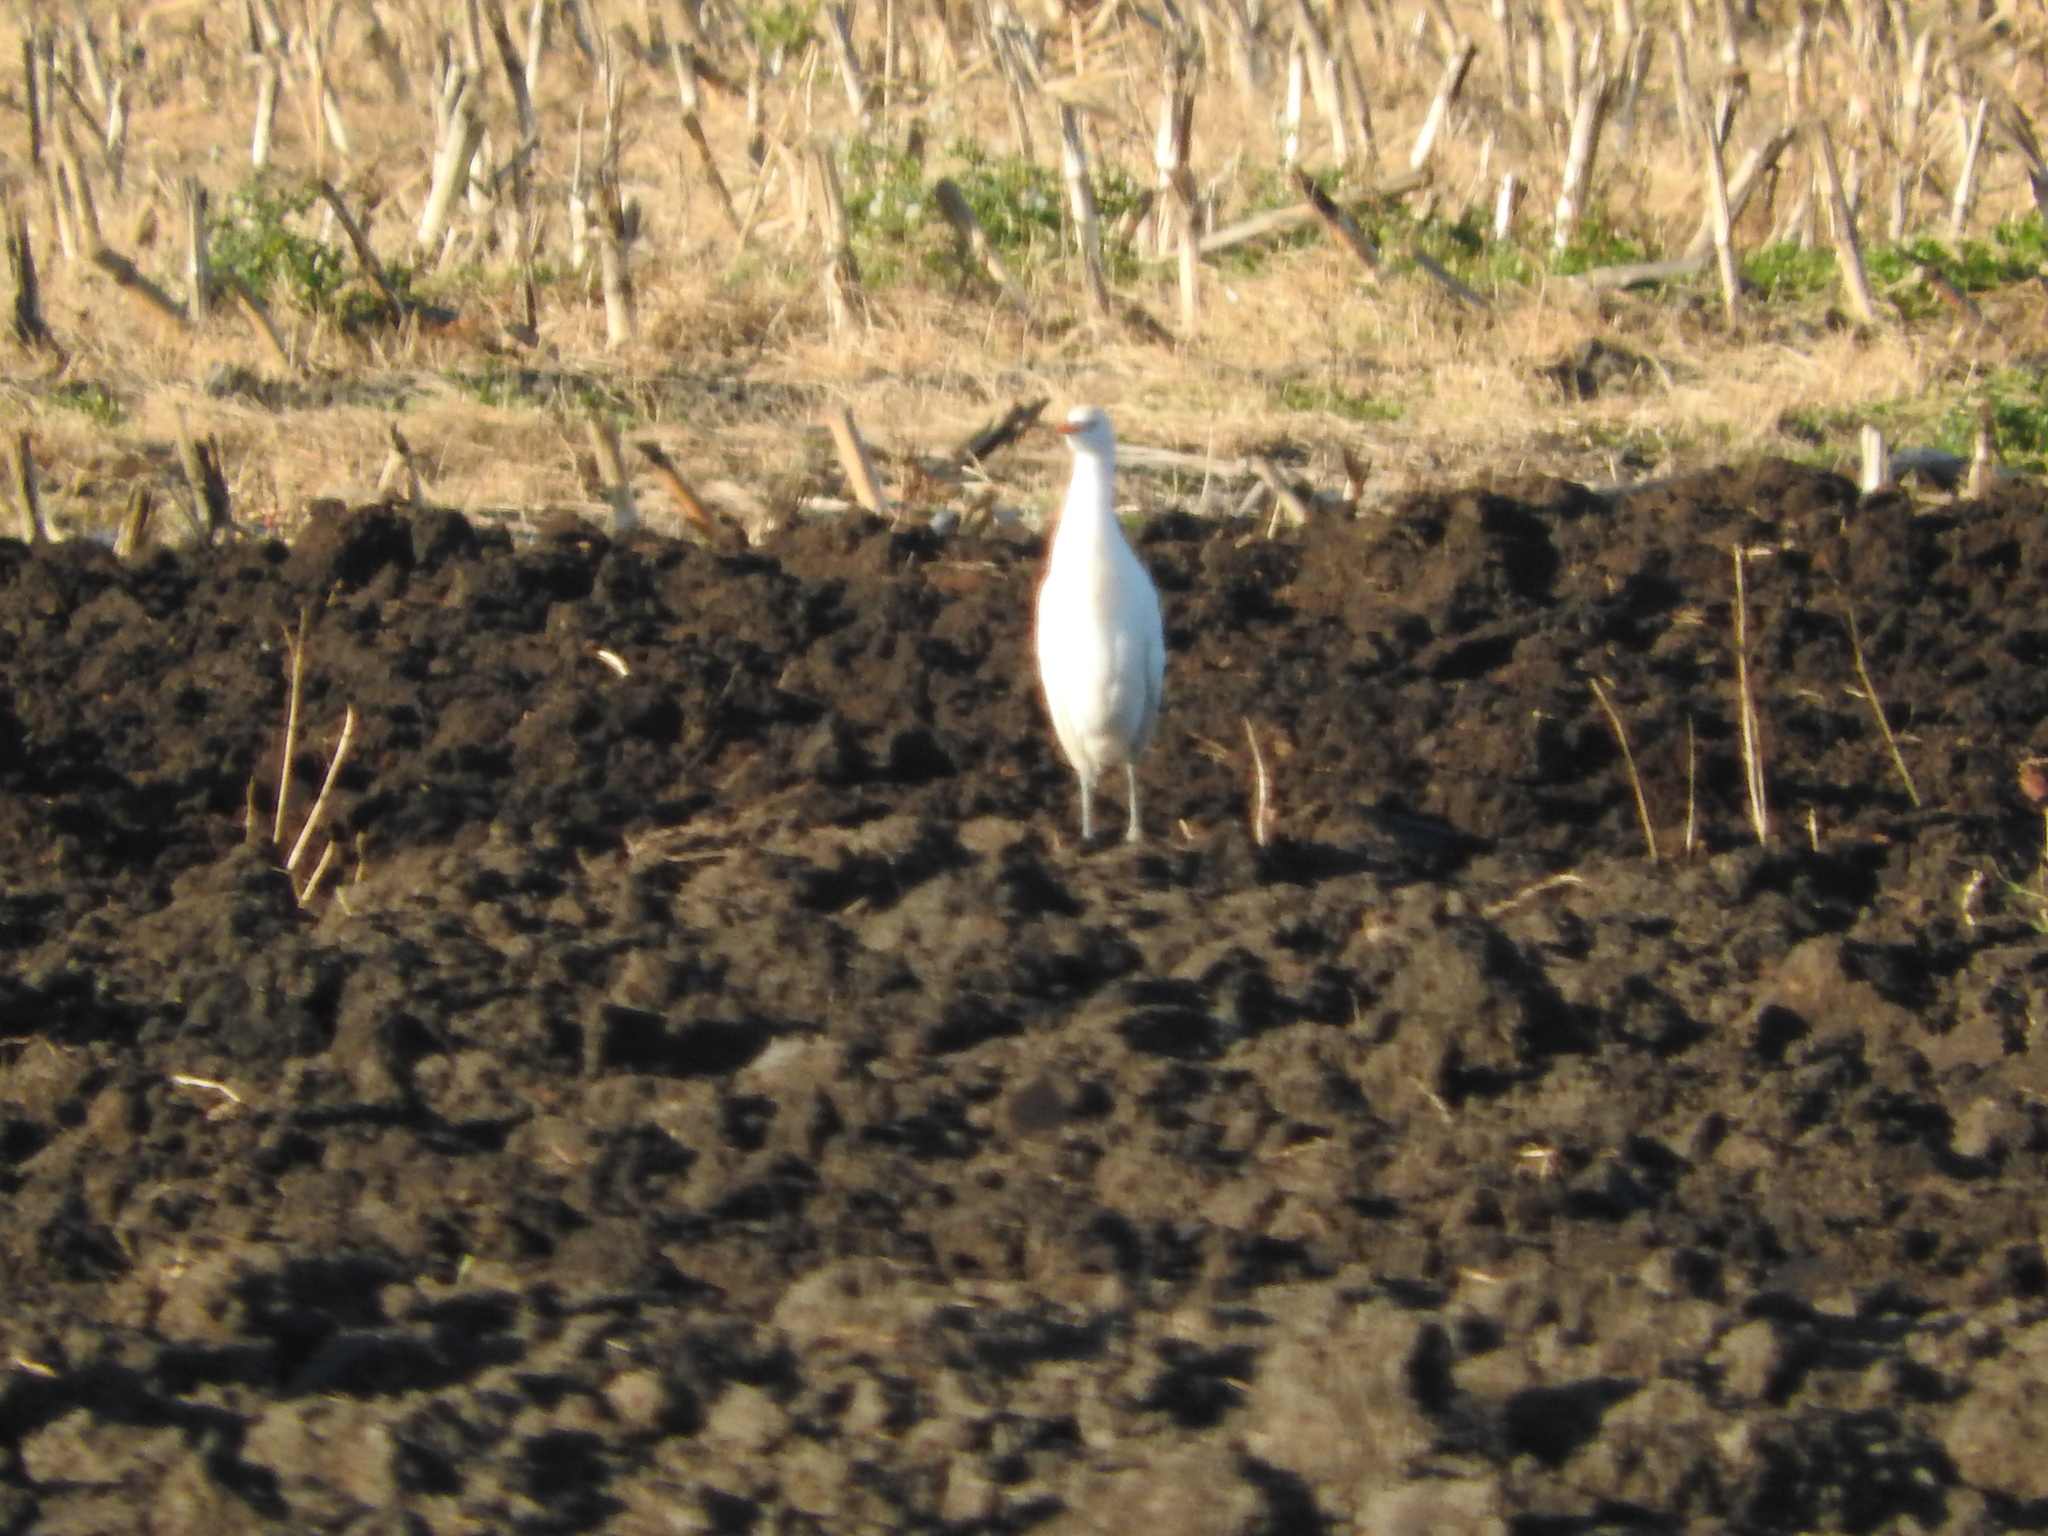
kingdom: Animalia
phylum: Chordata
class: Aves
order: Pelecaniformes
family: Ardeidae
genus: Bubulcus
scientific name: Bubulcus ibis
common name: Cattle egret
